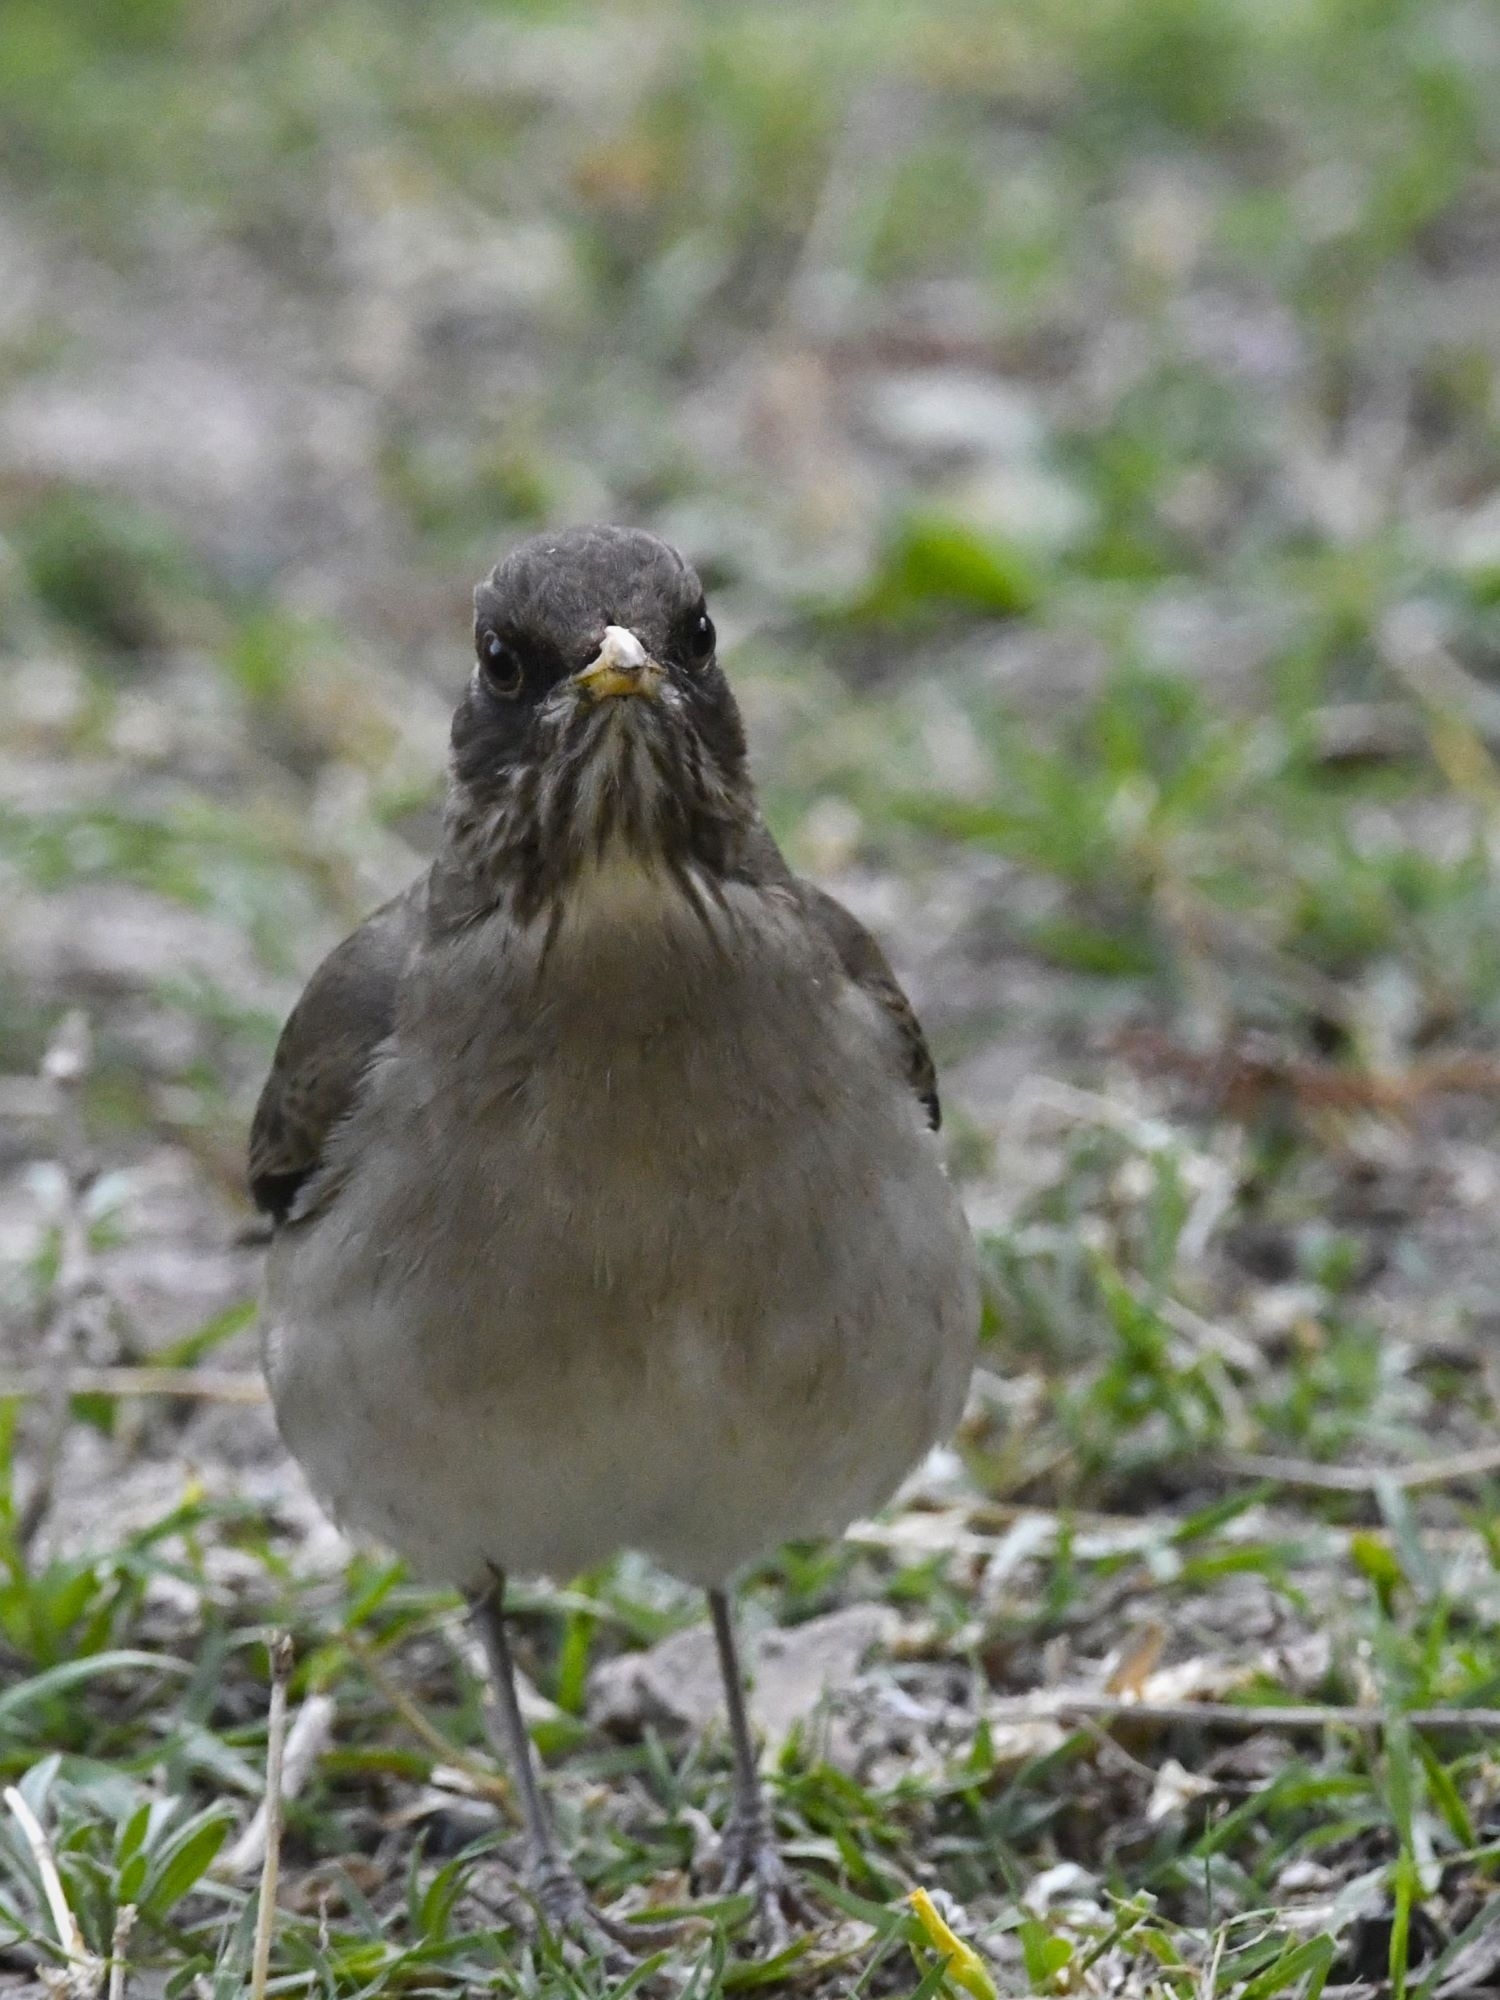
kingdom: Animalia
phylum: Chordata
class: Aves
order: Passeriformes
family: Turdidae
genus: Turdus
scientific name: Turdus amaurochalinus
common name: Creamy-bellied thrush
